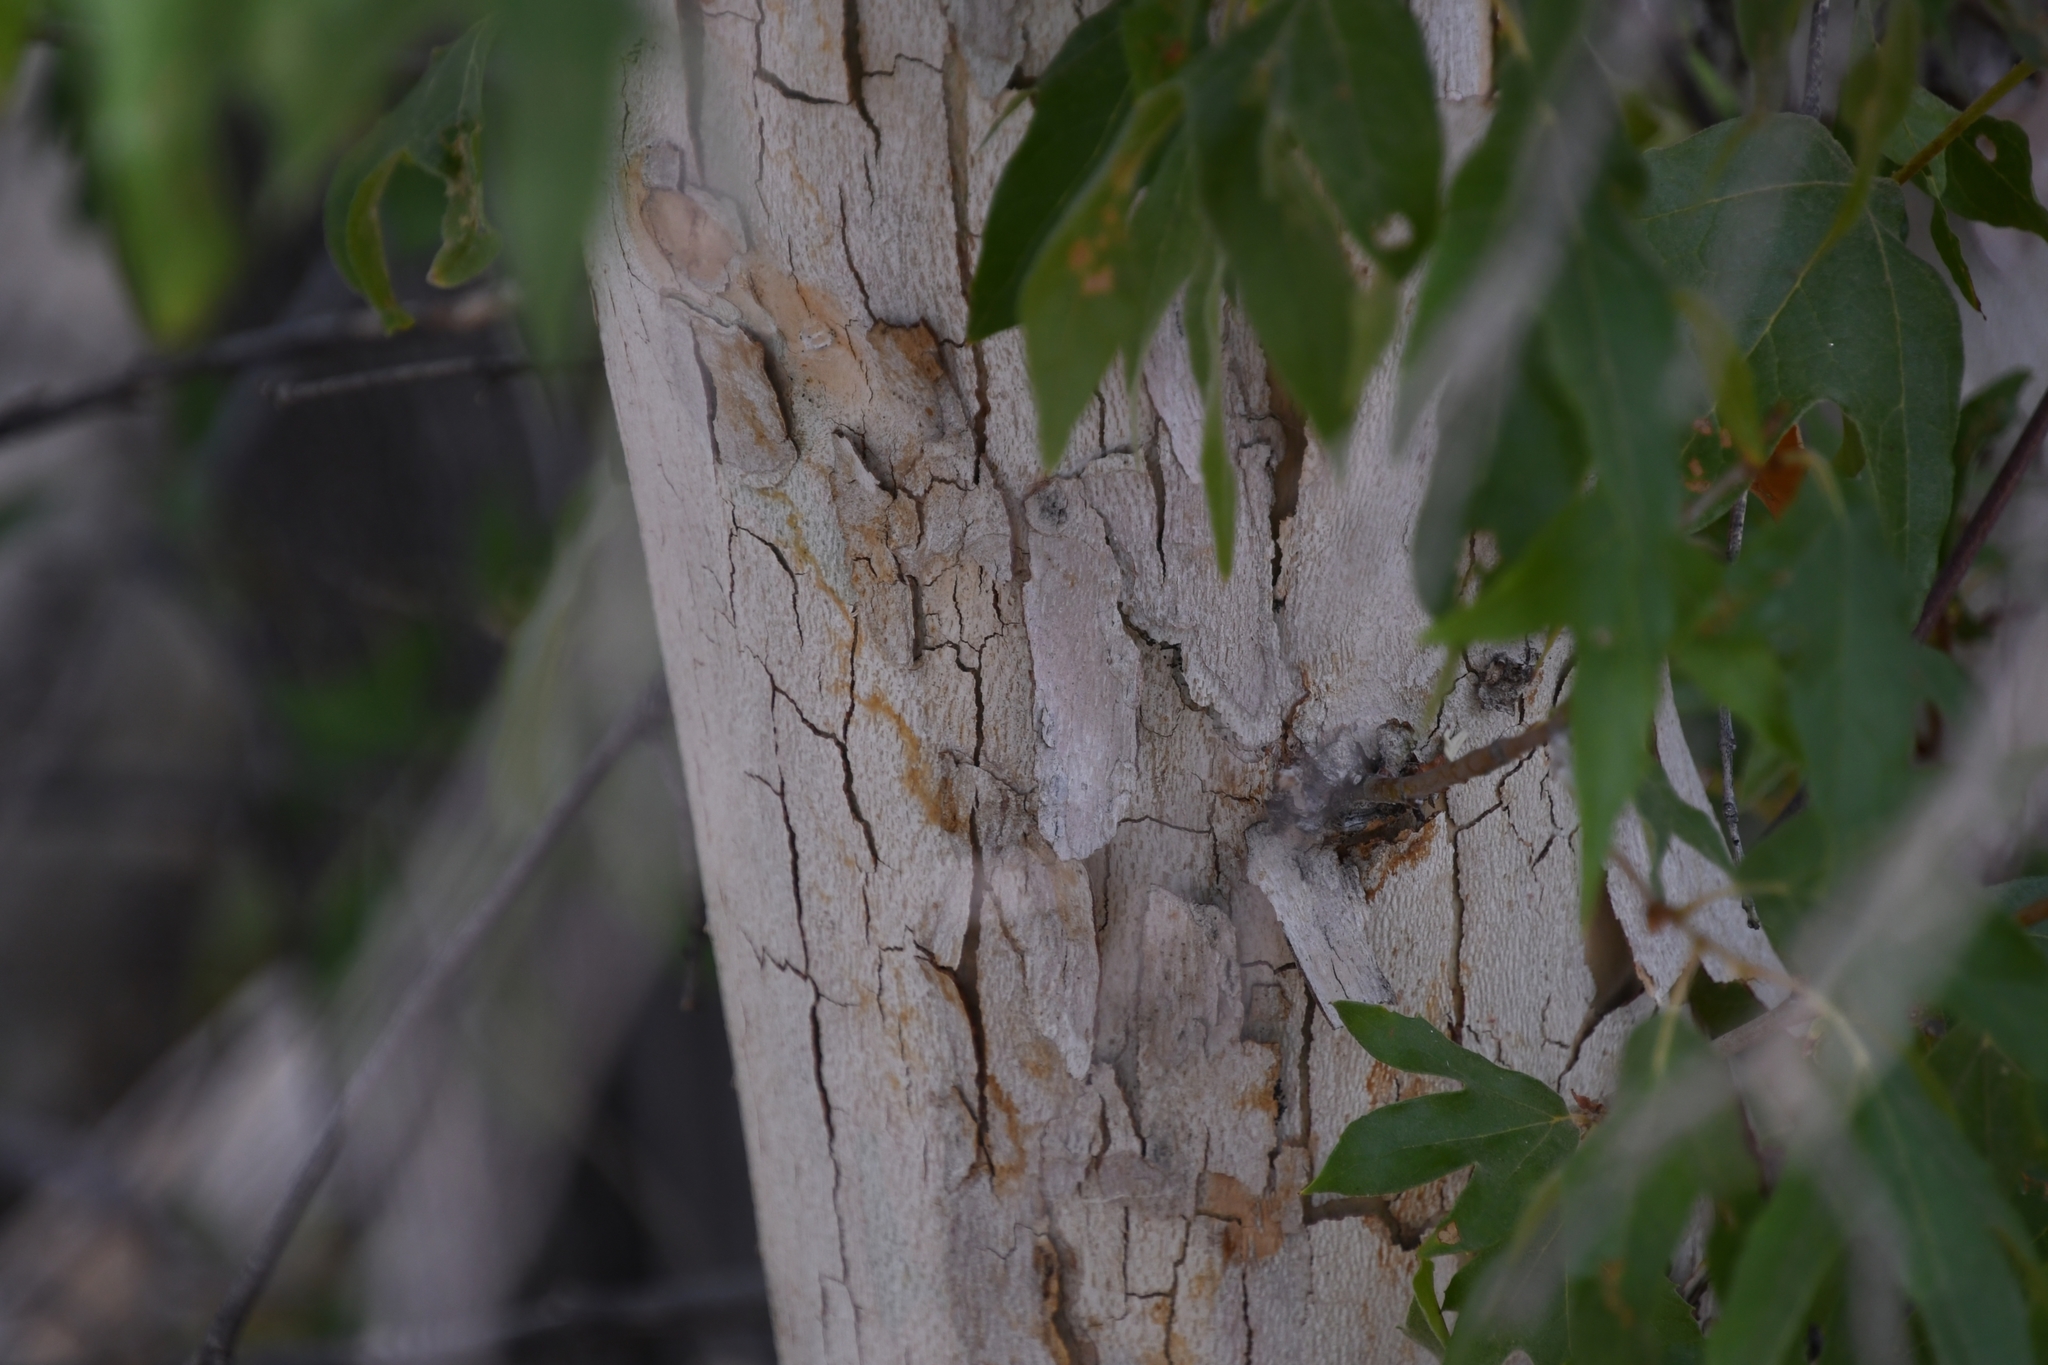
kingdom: Plantae
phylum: Tracheophyta
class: Magnoliopsida
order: Proteales
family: Platanaceae
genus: Platanus
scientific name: Platanus wrightii
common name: Arizona sycamore
